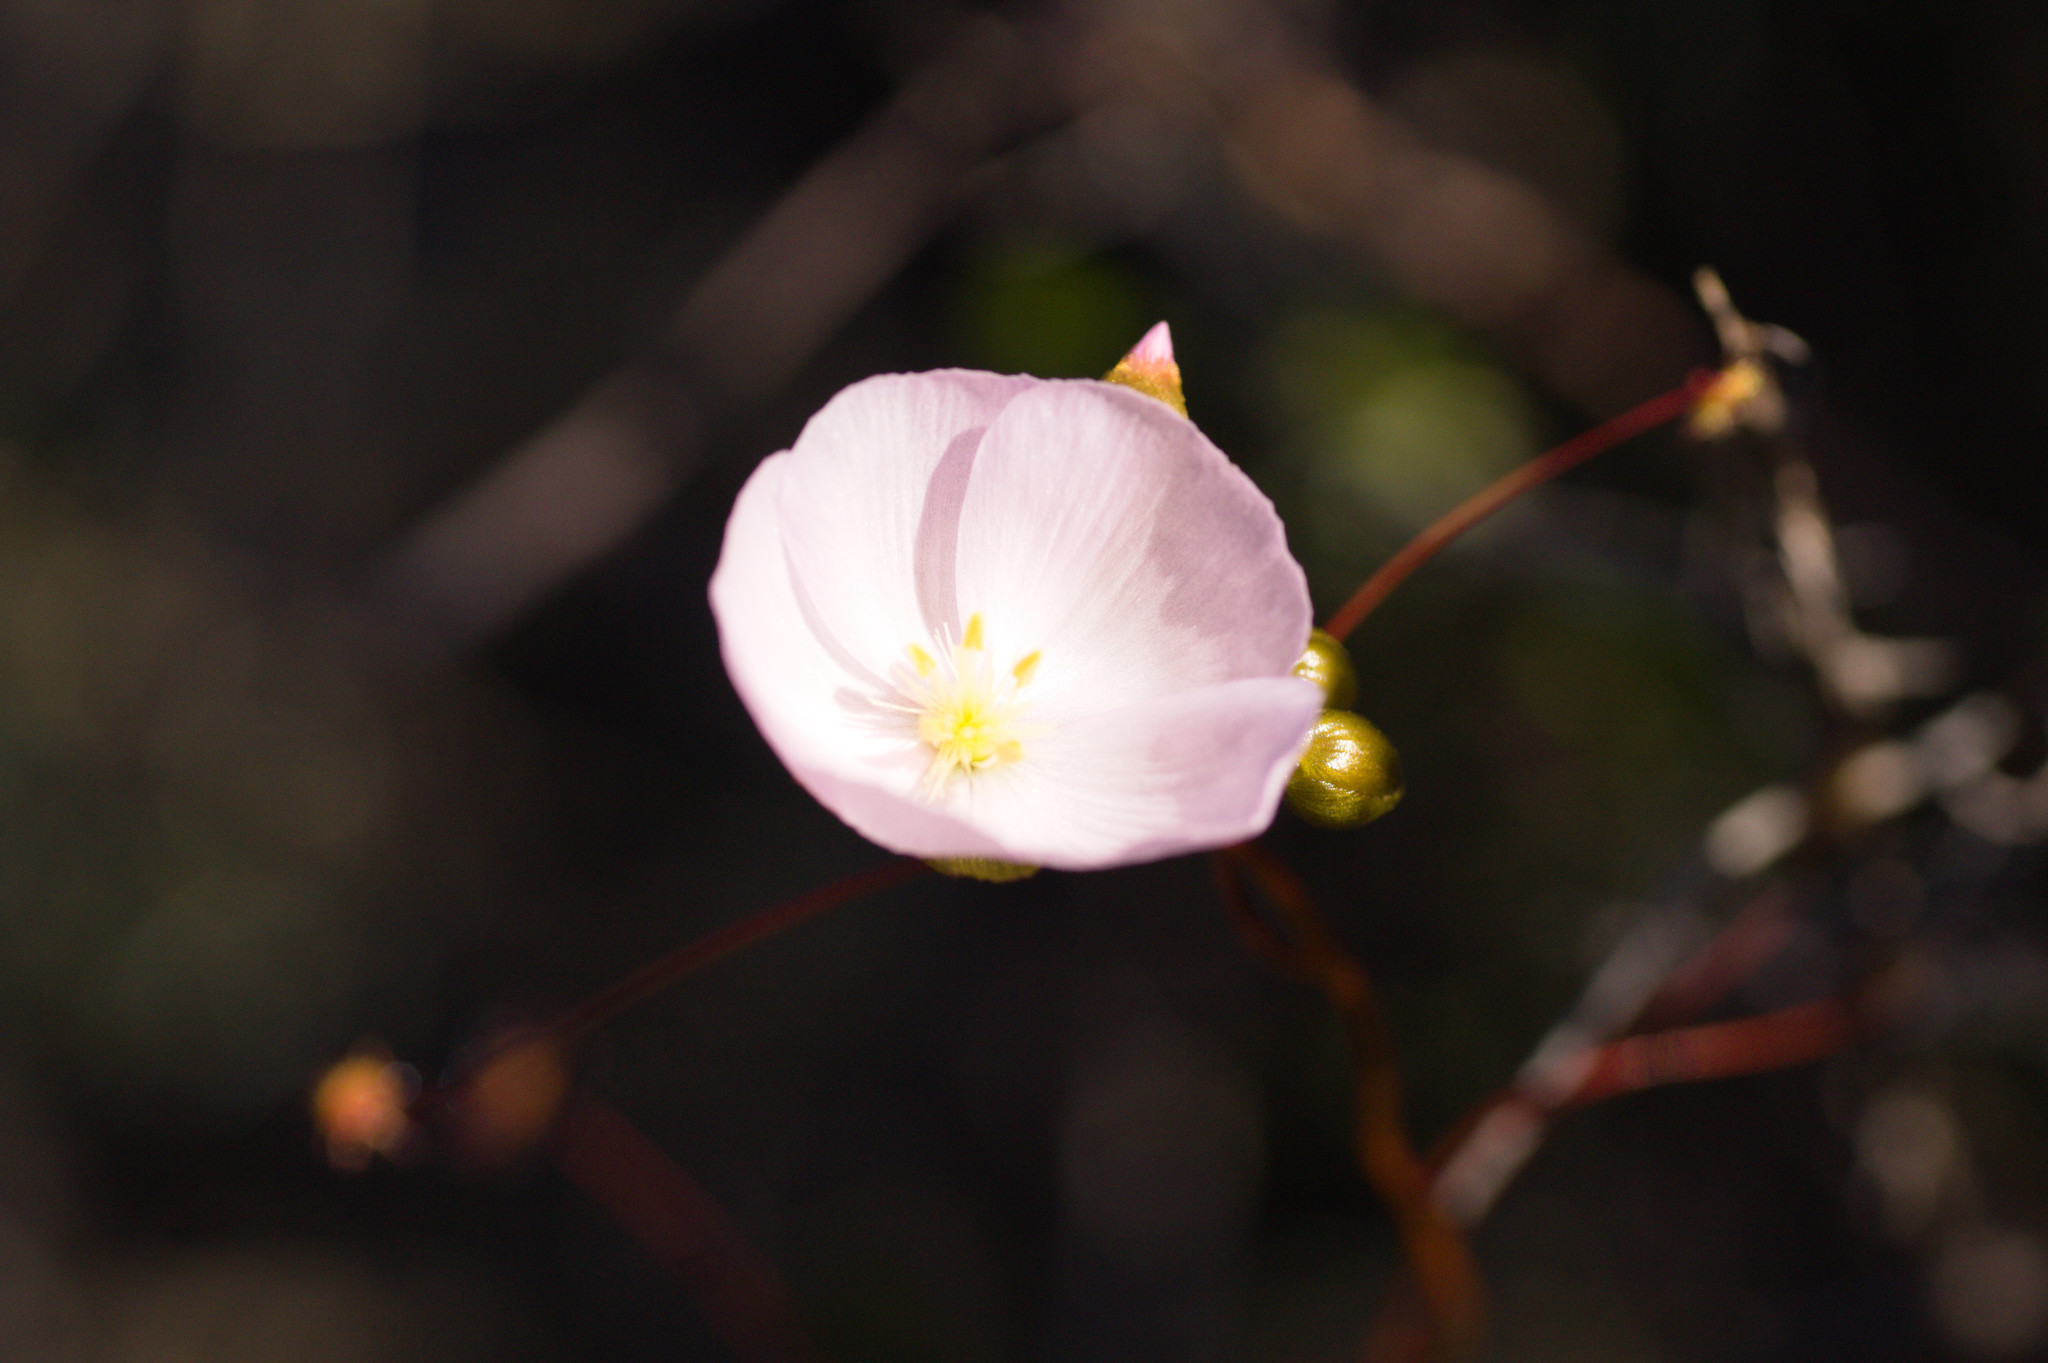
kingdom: Plantae
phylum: Tracheophyta
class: Magnoliopsida
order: Caryophyllales
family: Droseraceae
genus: Drosera
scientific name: Drosera menziesii
